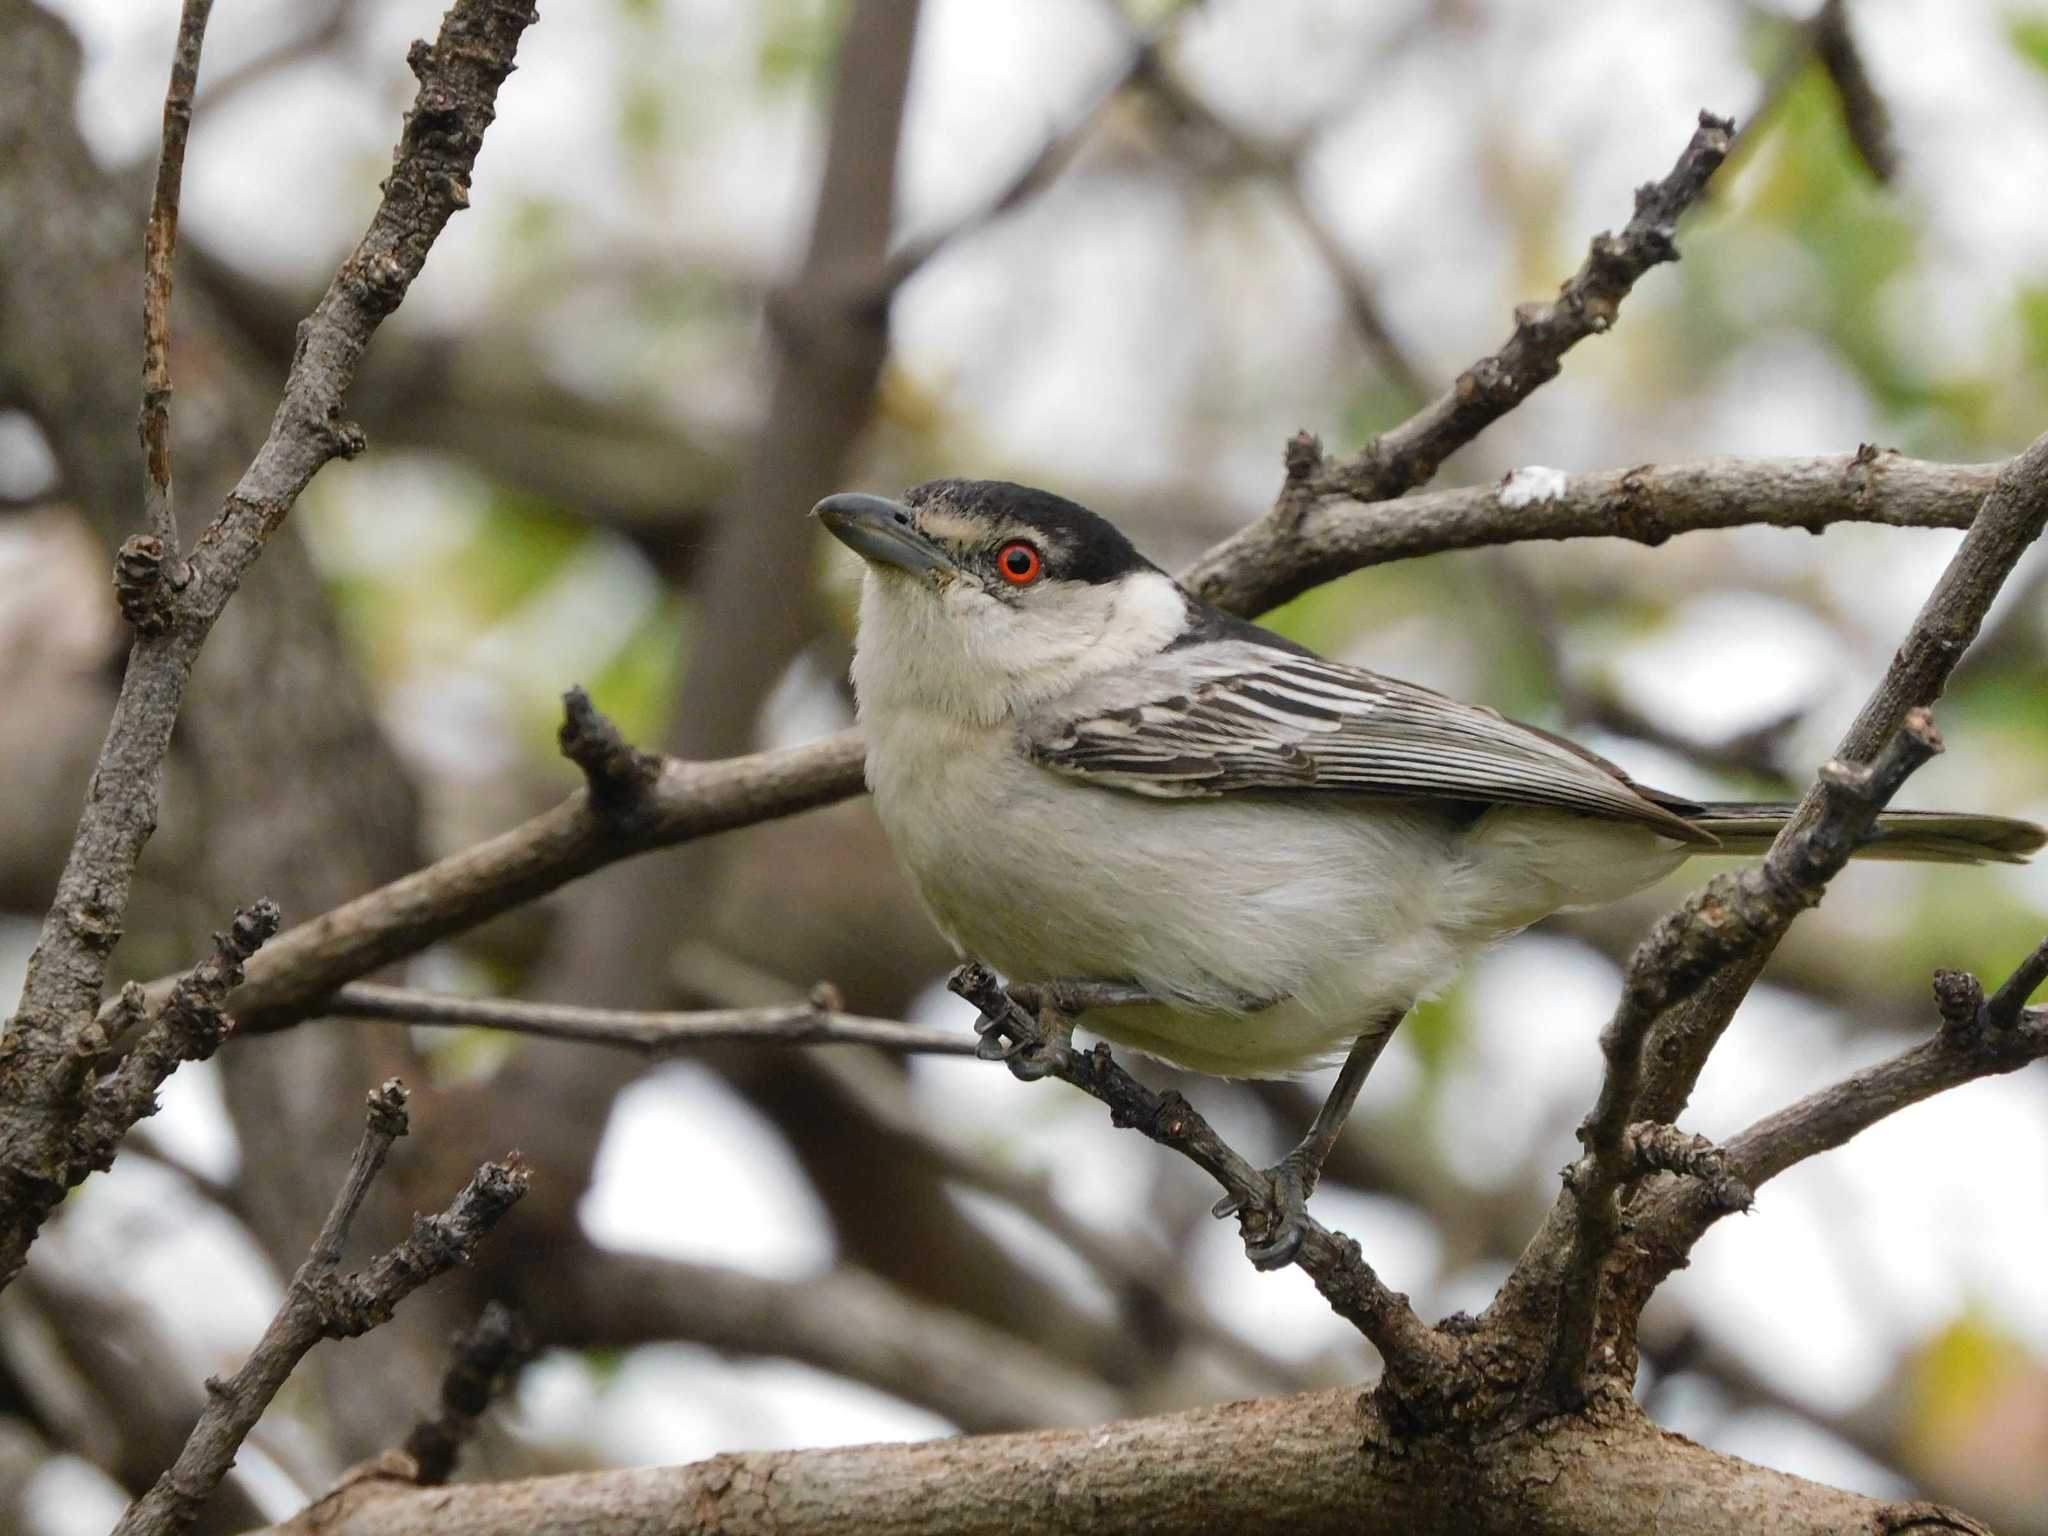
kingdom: Animalia
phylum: Chordata
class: Aves
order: Passeriformes
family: Malaconotidae
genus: Dryoscopus
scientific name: Dryoscopus cubla
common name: Black-backed puffback
